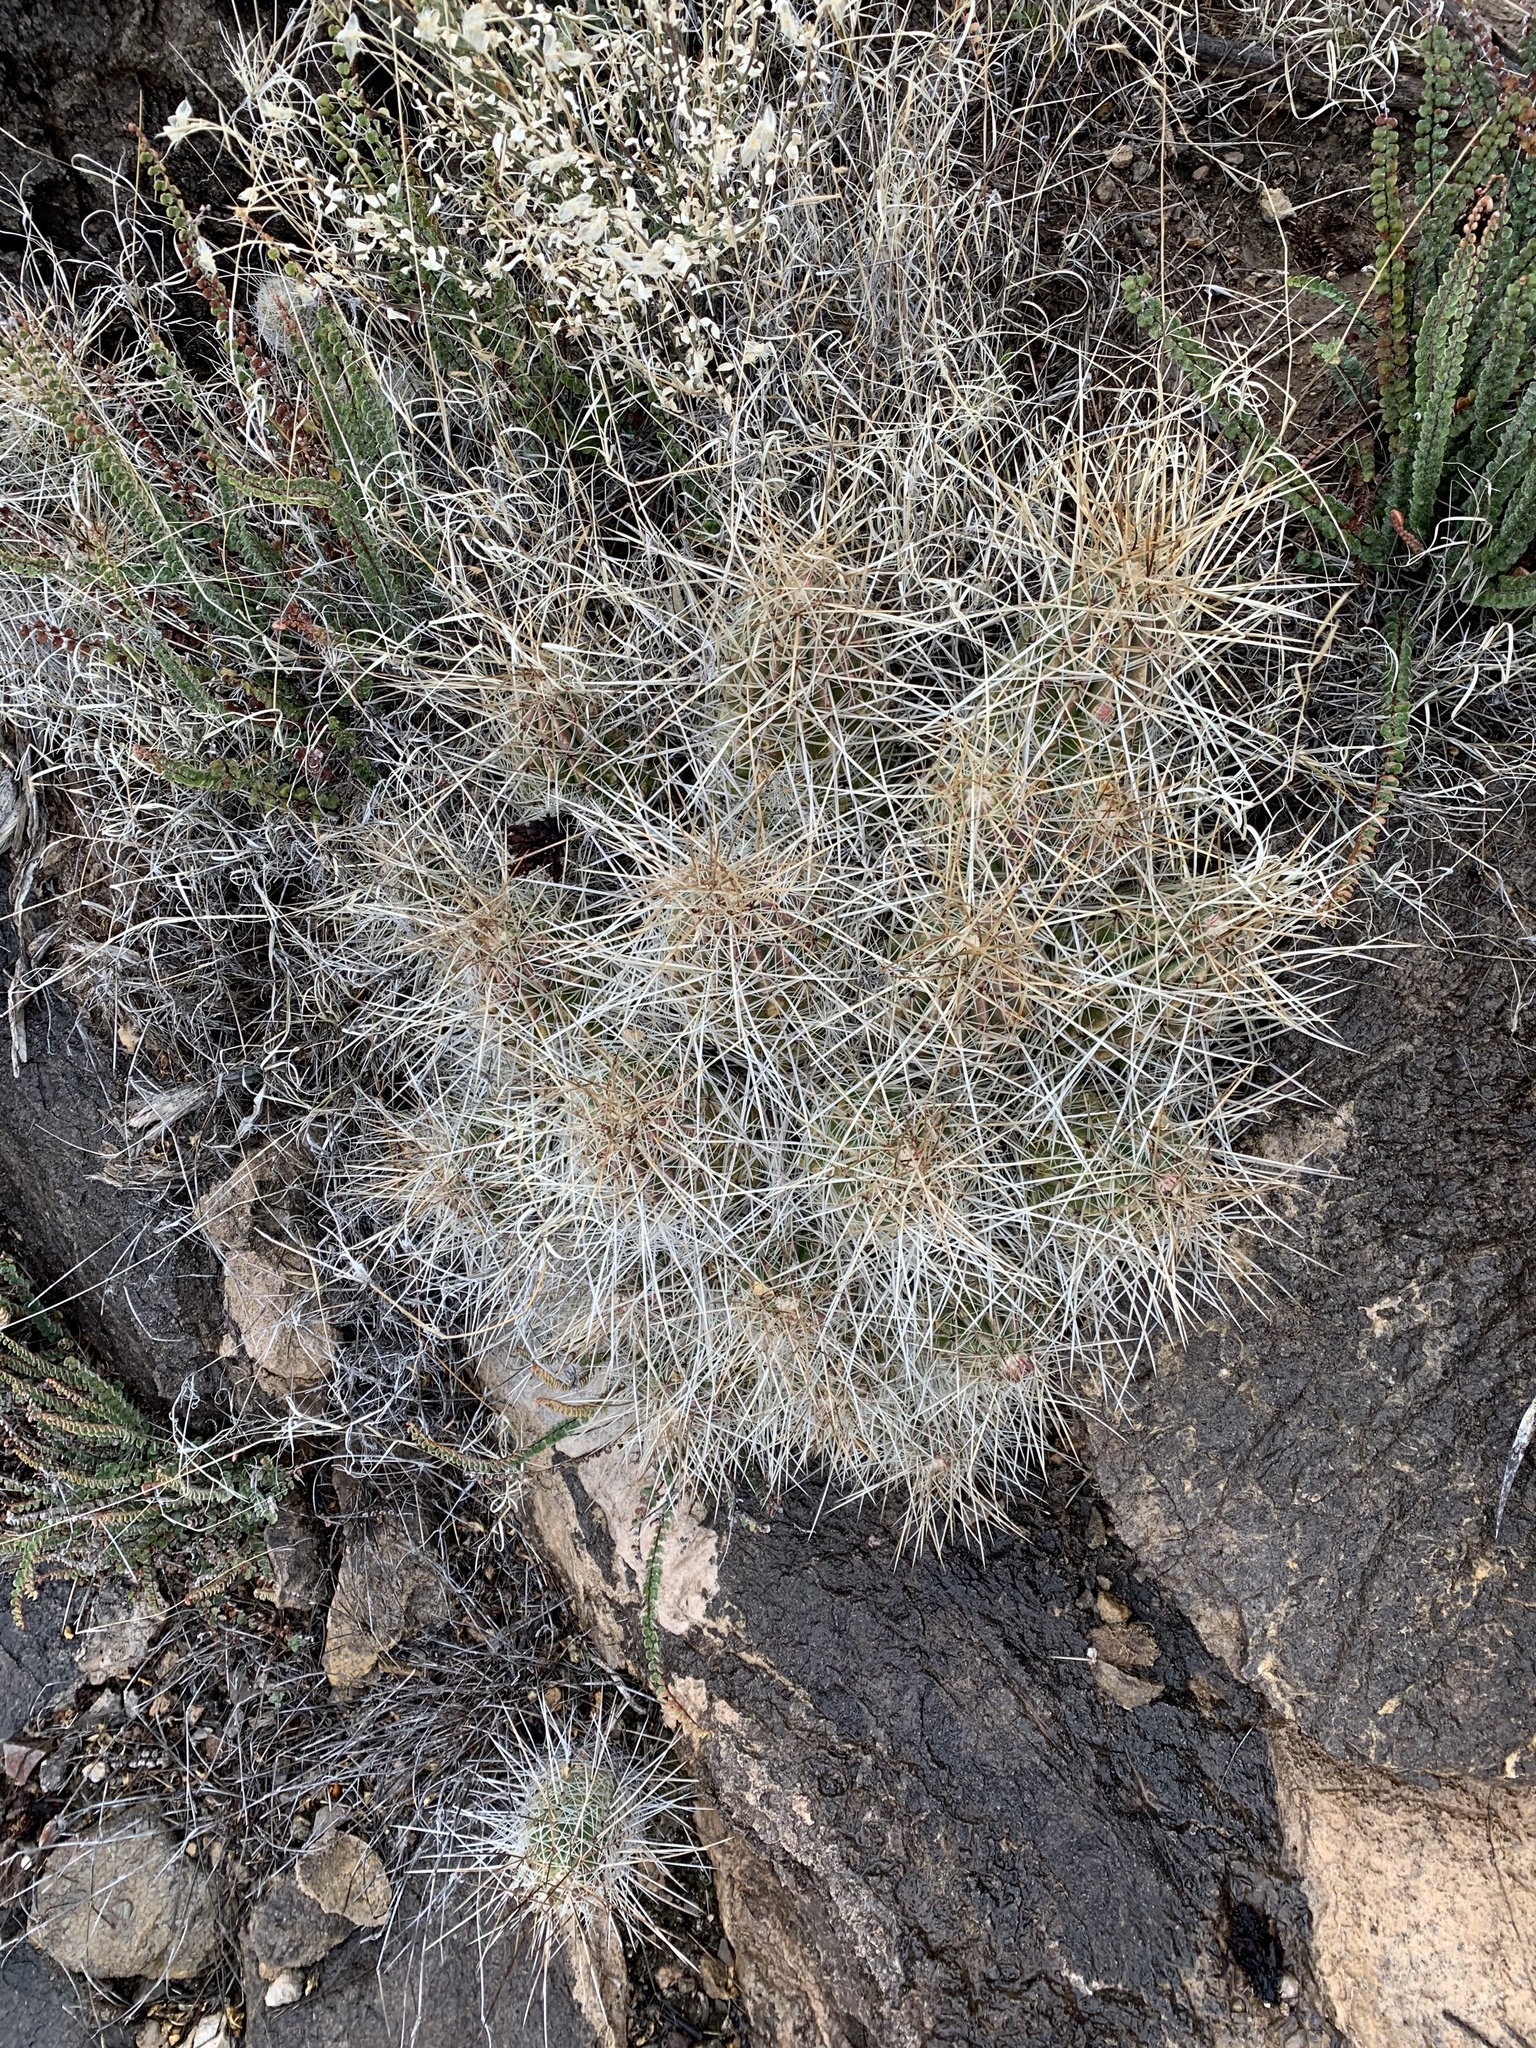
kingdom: Plantae
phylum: Tracheophyta
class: Magnoliopsida
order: Caryophyllales
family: Cactaceae
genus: Echinocereus
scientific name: Echinocereus stramineus
